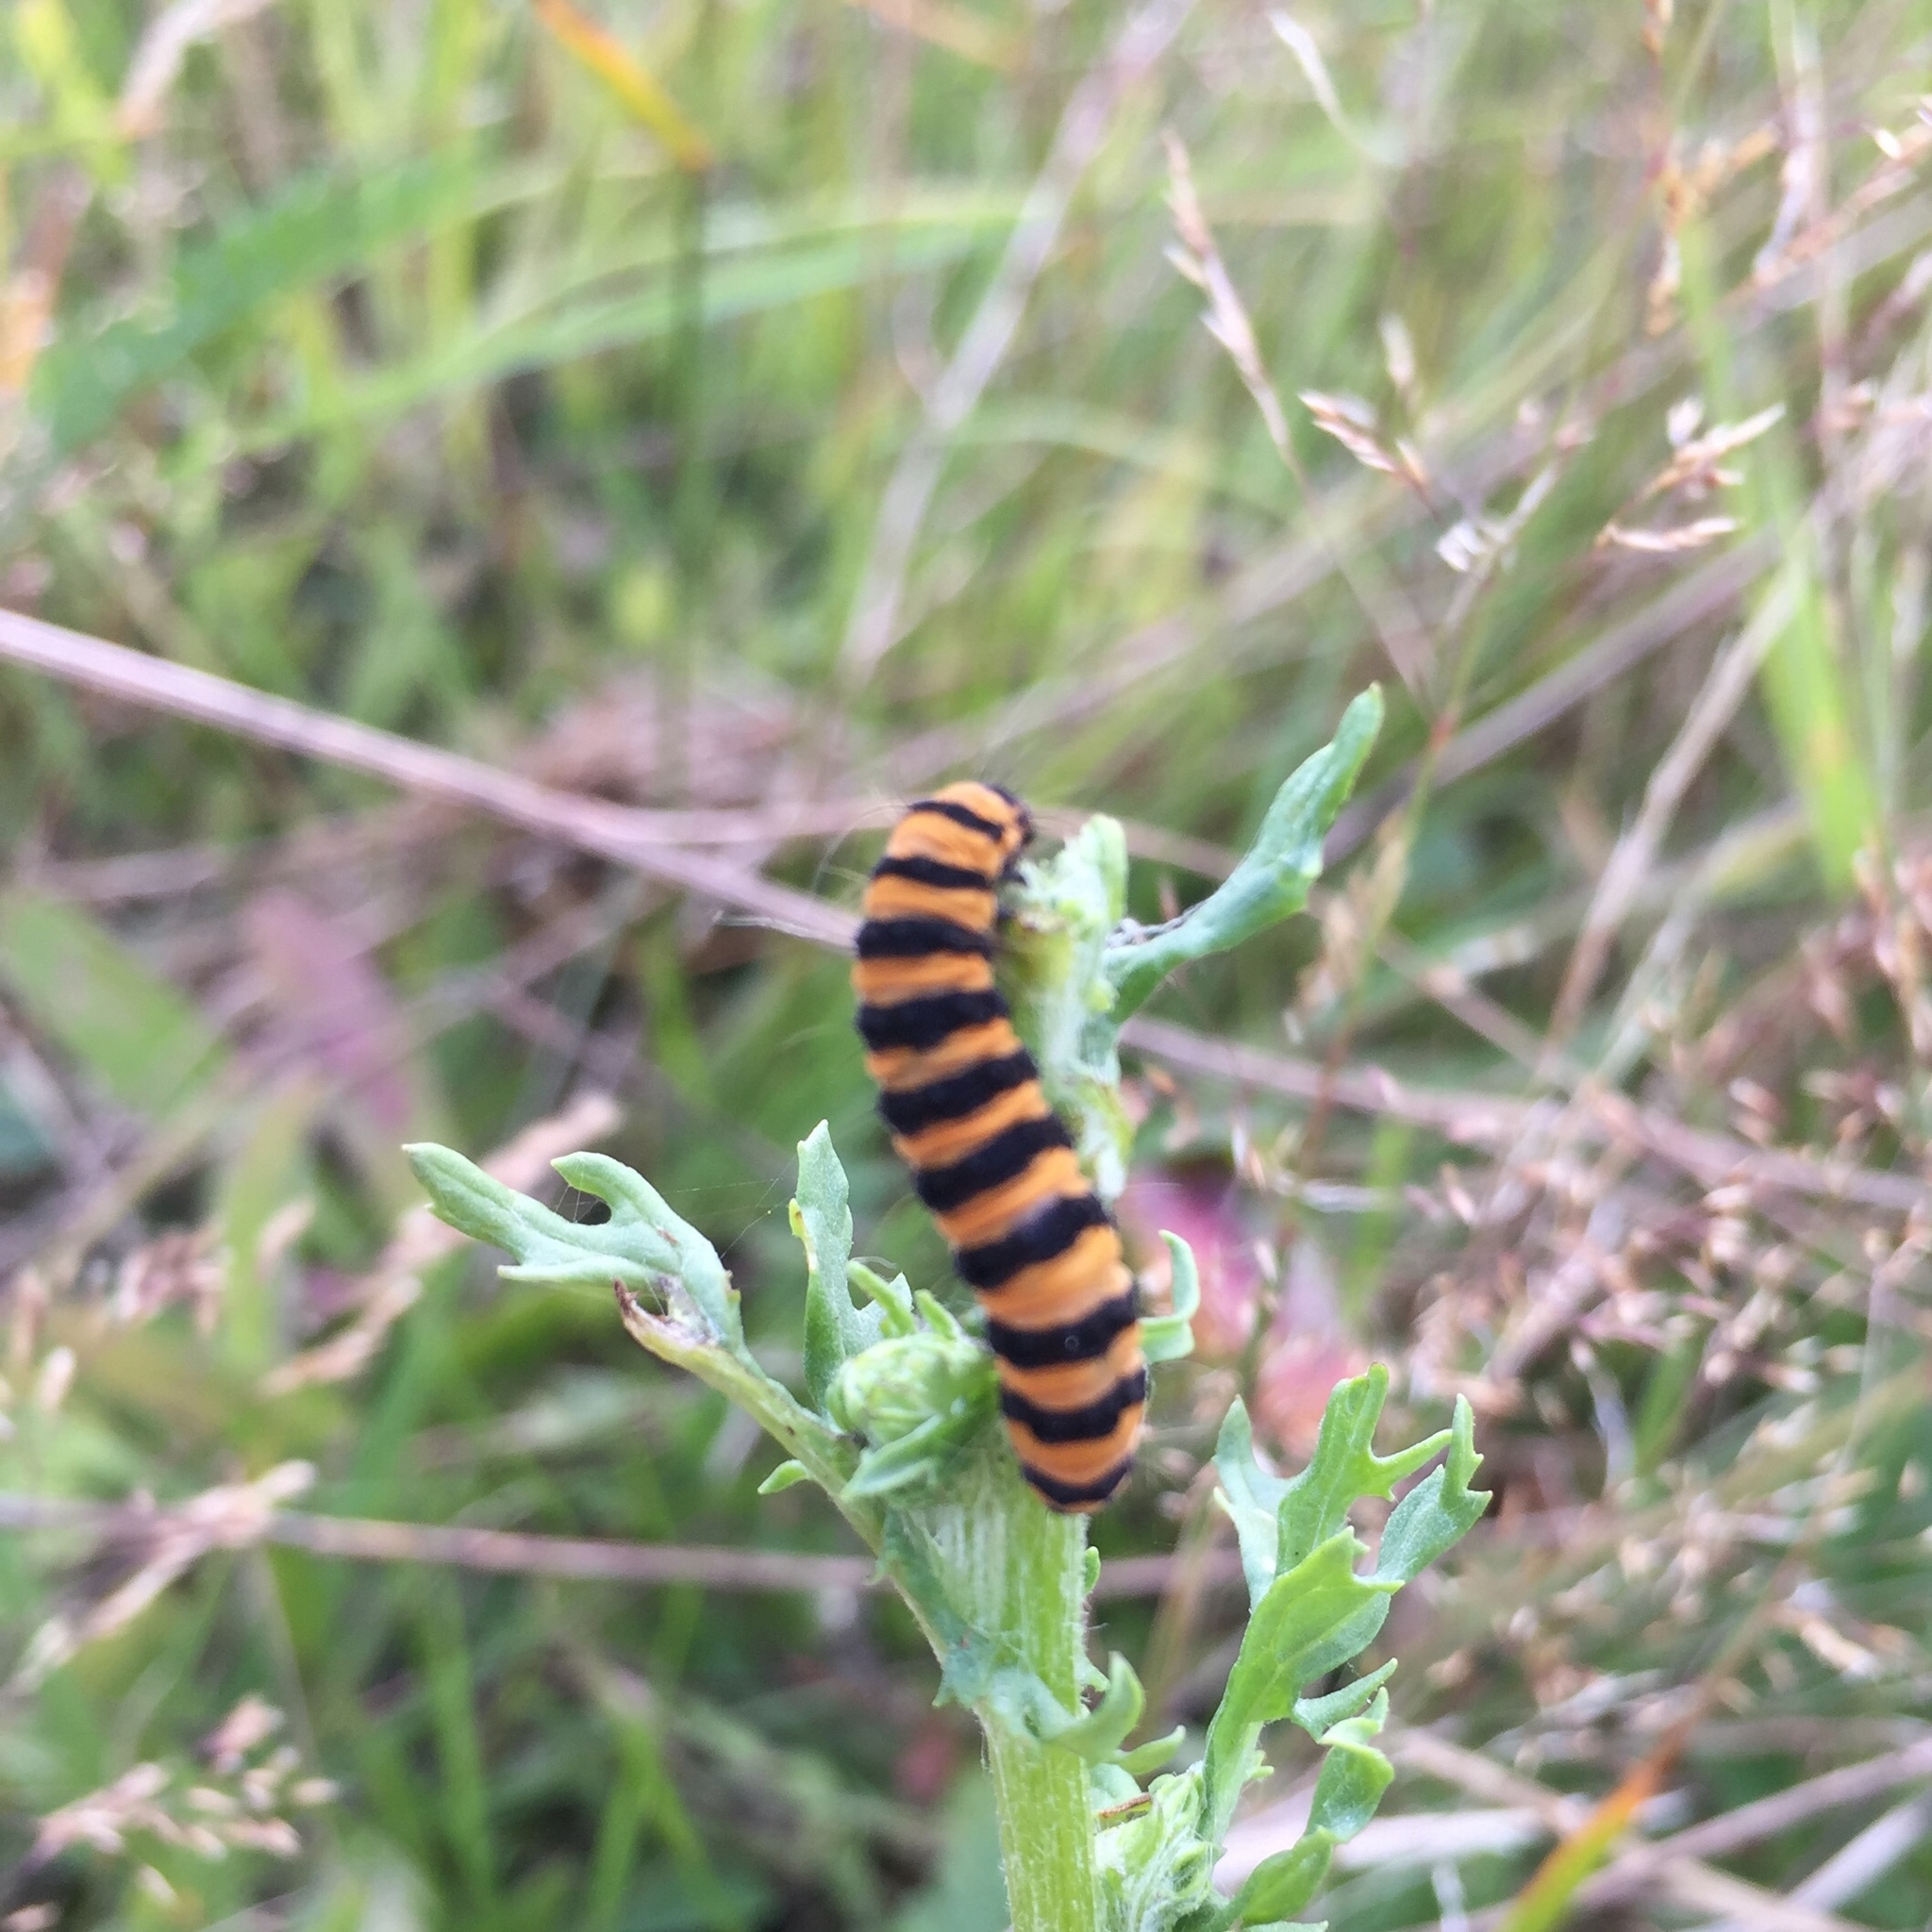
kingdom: Animalia
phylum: Arthropoda
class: Insecta
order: Lepidoptera
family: Erebidae
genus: Tyria
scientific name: Tyria jacobaeae
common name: Cinnabar
